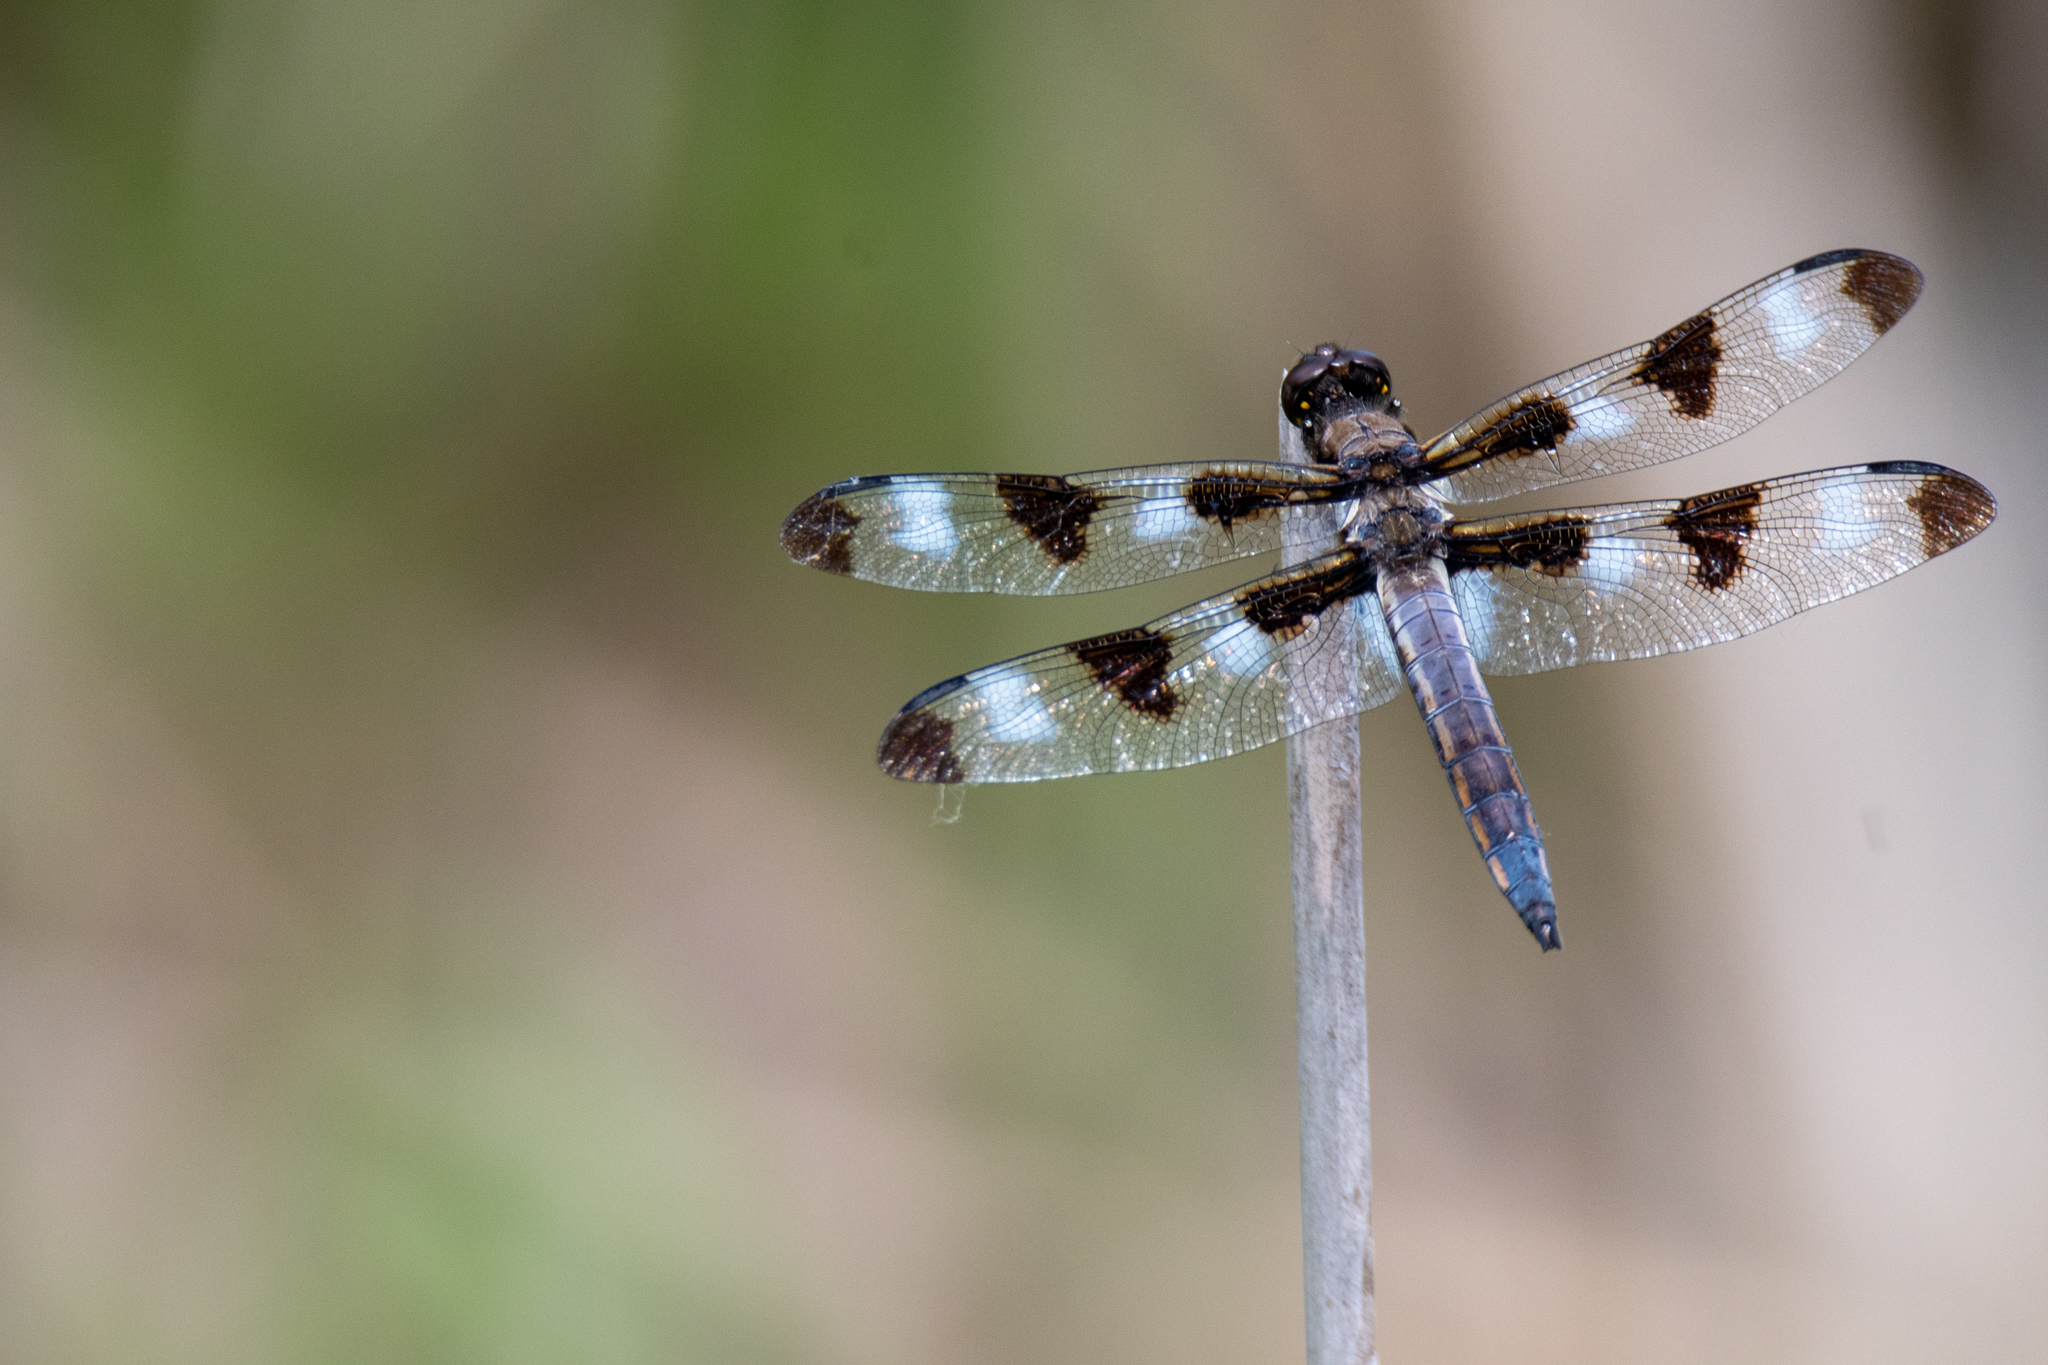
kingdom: Animalia
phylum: Arthropoda
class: Insecta
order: Odonata
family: Libellulidae
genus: Libellula
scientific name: Libellula pulchella
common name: Twelve-spotted skimmer
